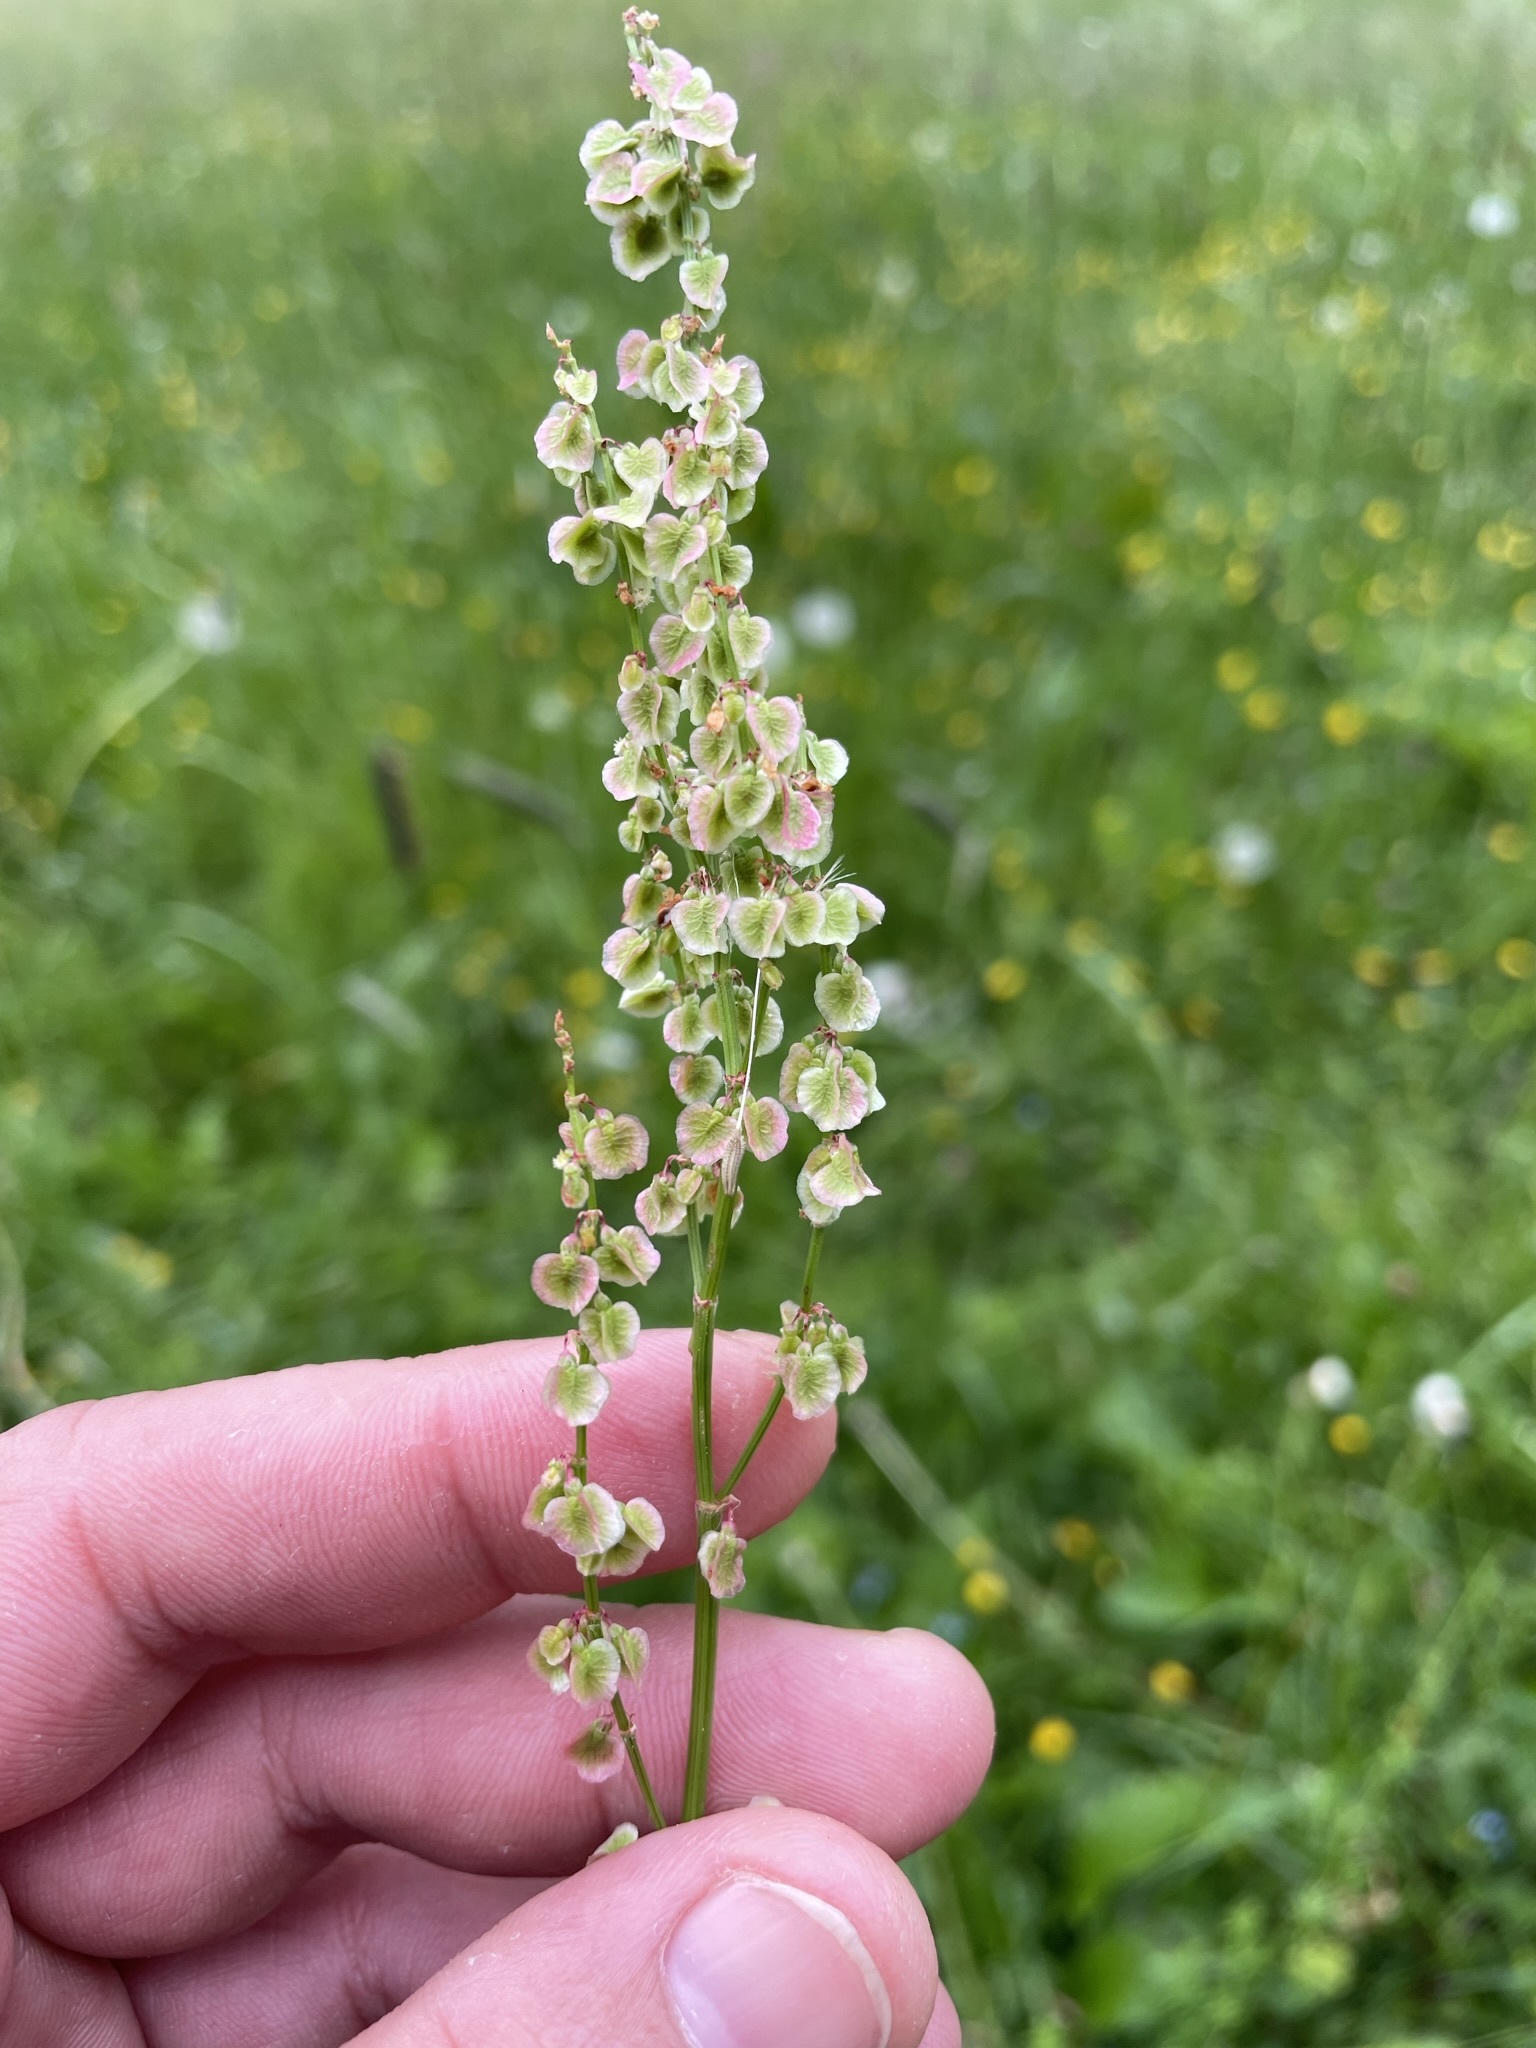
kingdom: Plantae
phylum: Tracheophyta
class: Magnoliopsida
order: Caryophyllales
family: Polygonaceae
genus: Rumex
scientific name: Rumex acetosa
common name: Garden sorrel
